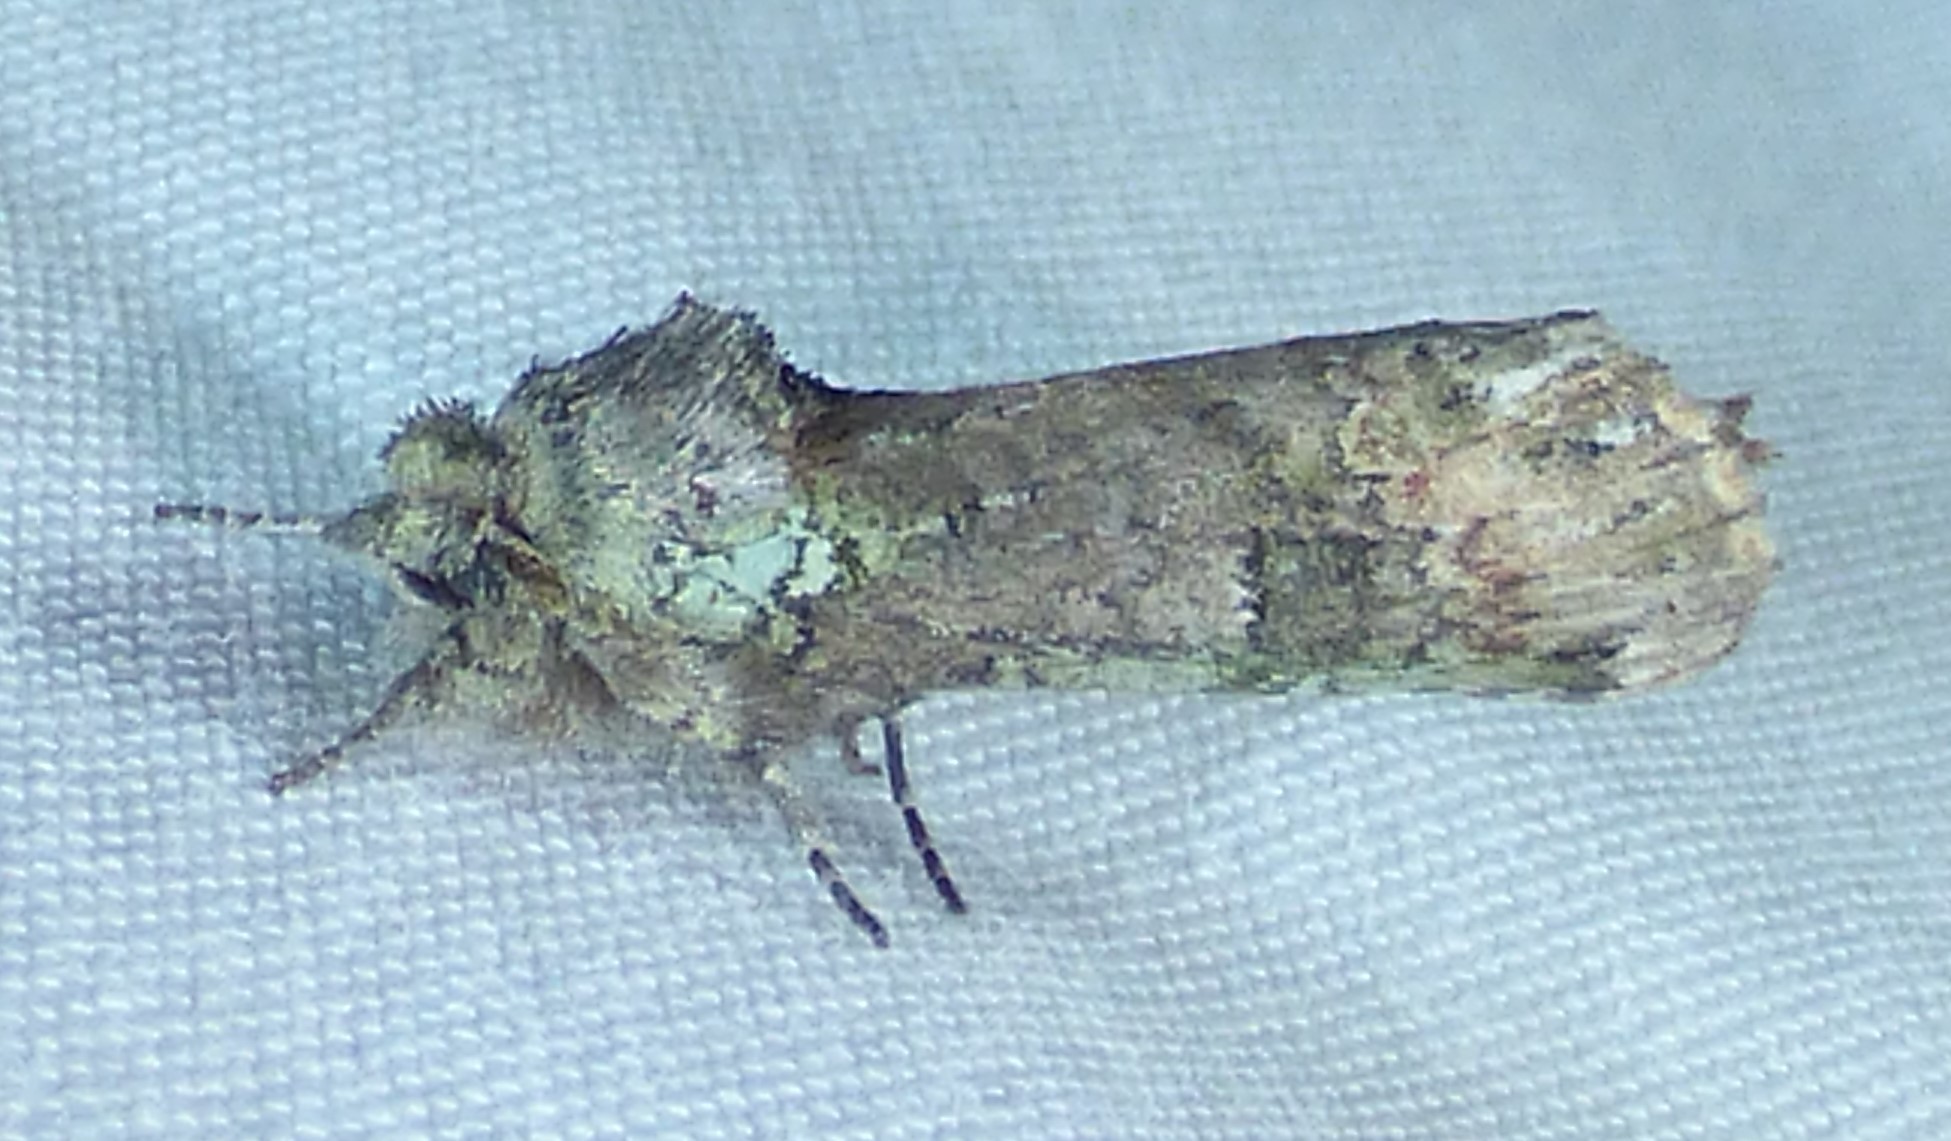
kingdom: Animalia
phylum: Arthropoda
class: Insecta
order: Lepidoptera
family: Notodontidae
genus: Schizura
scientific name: Schizura
